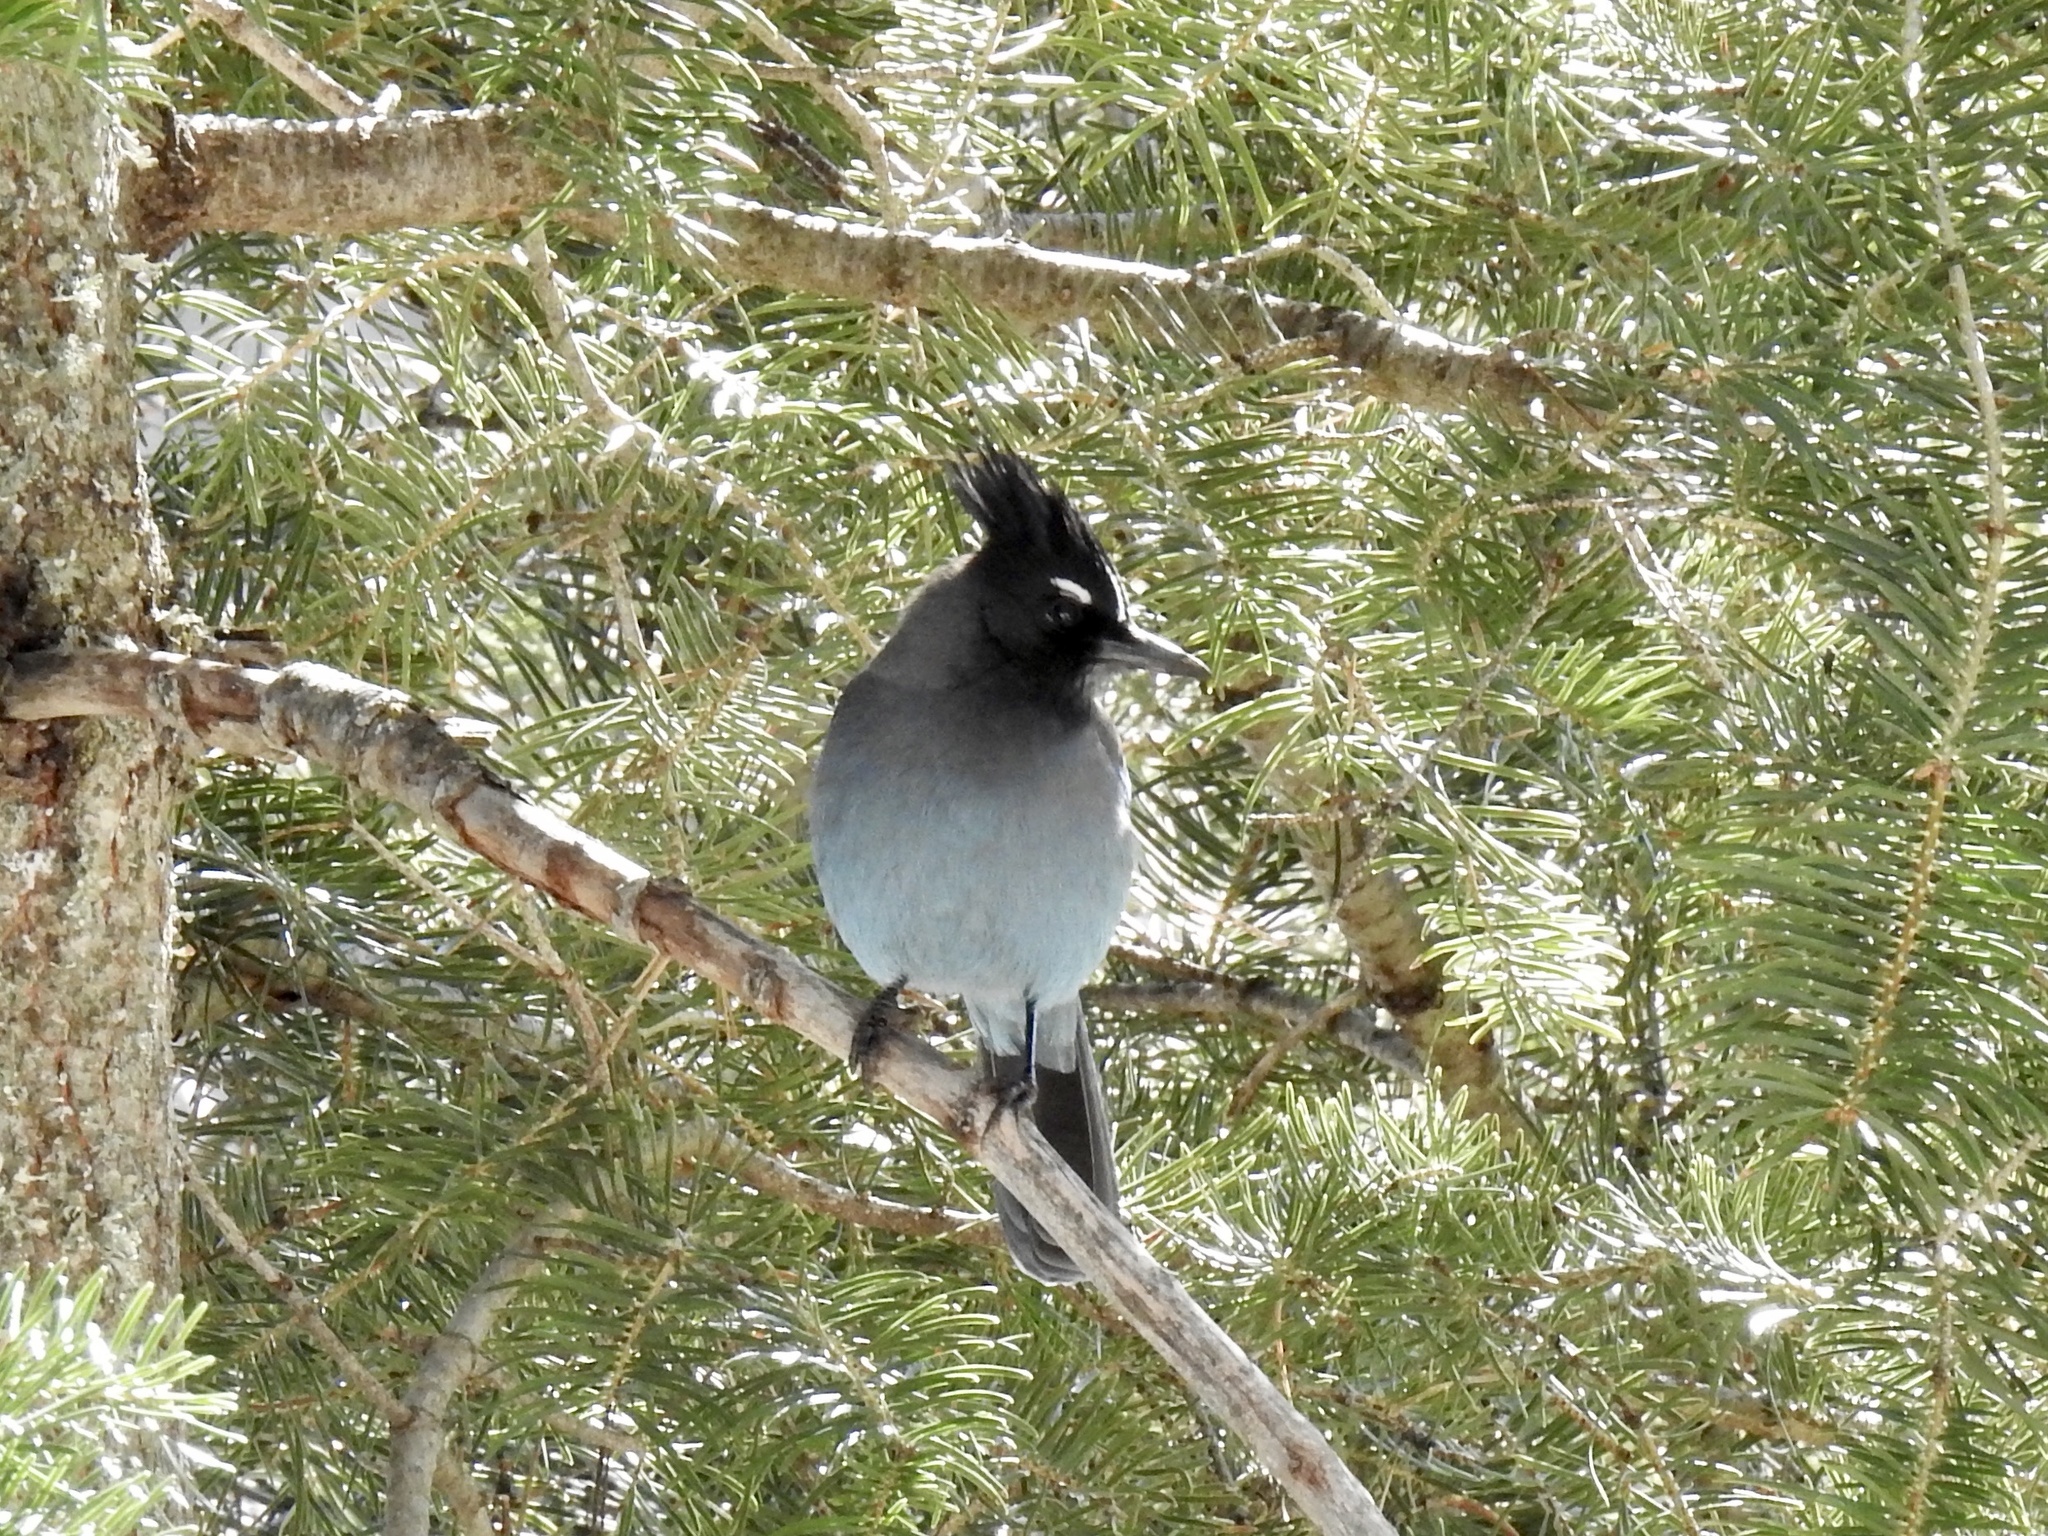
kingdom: Animalia
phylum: Chordata
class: Aves
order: Passeriformes
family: Corvidae
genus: Cyanocitta
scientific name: Cyanocitta stelleri
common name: Steller's jay
